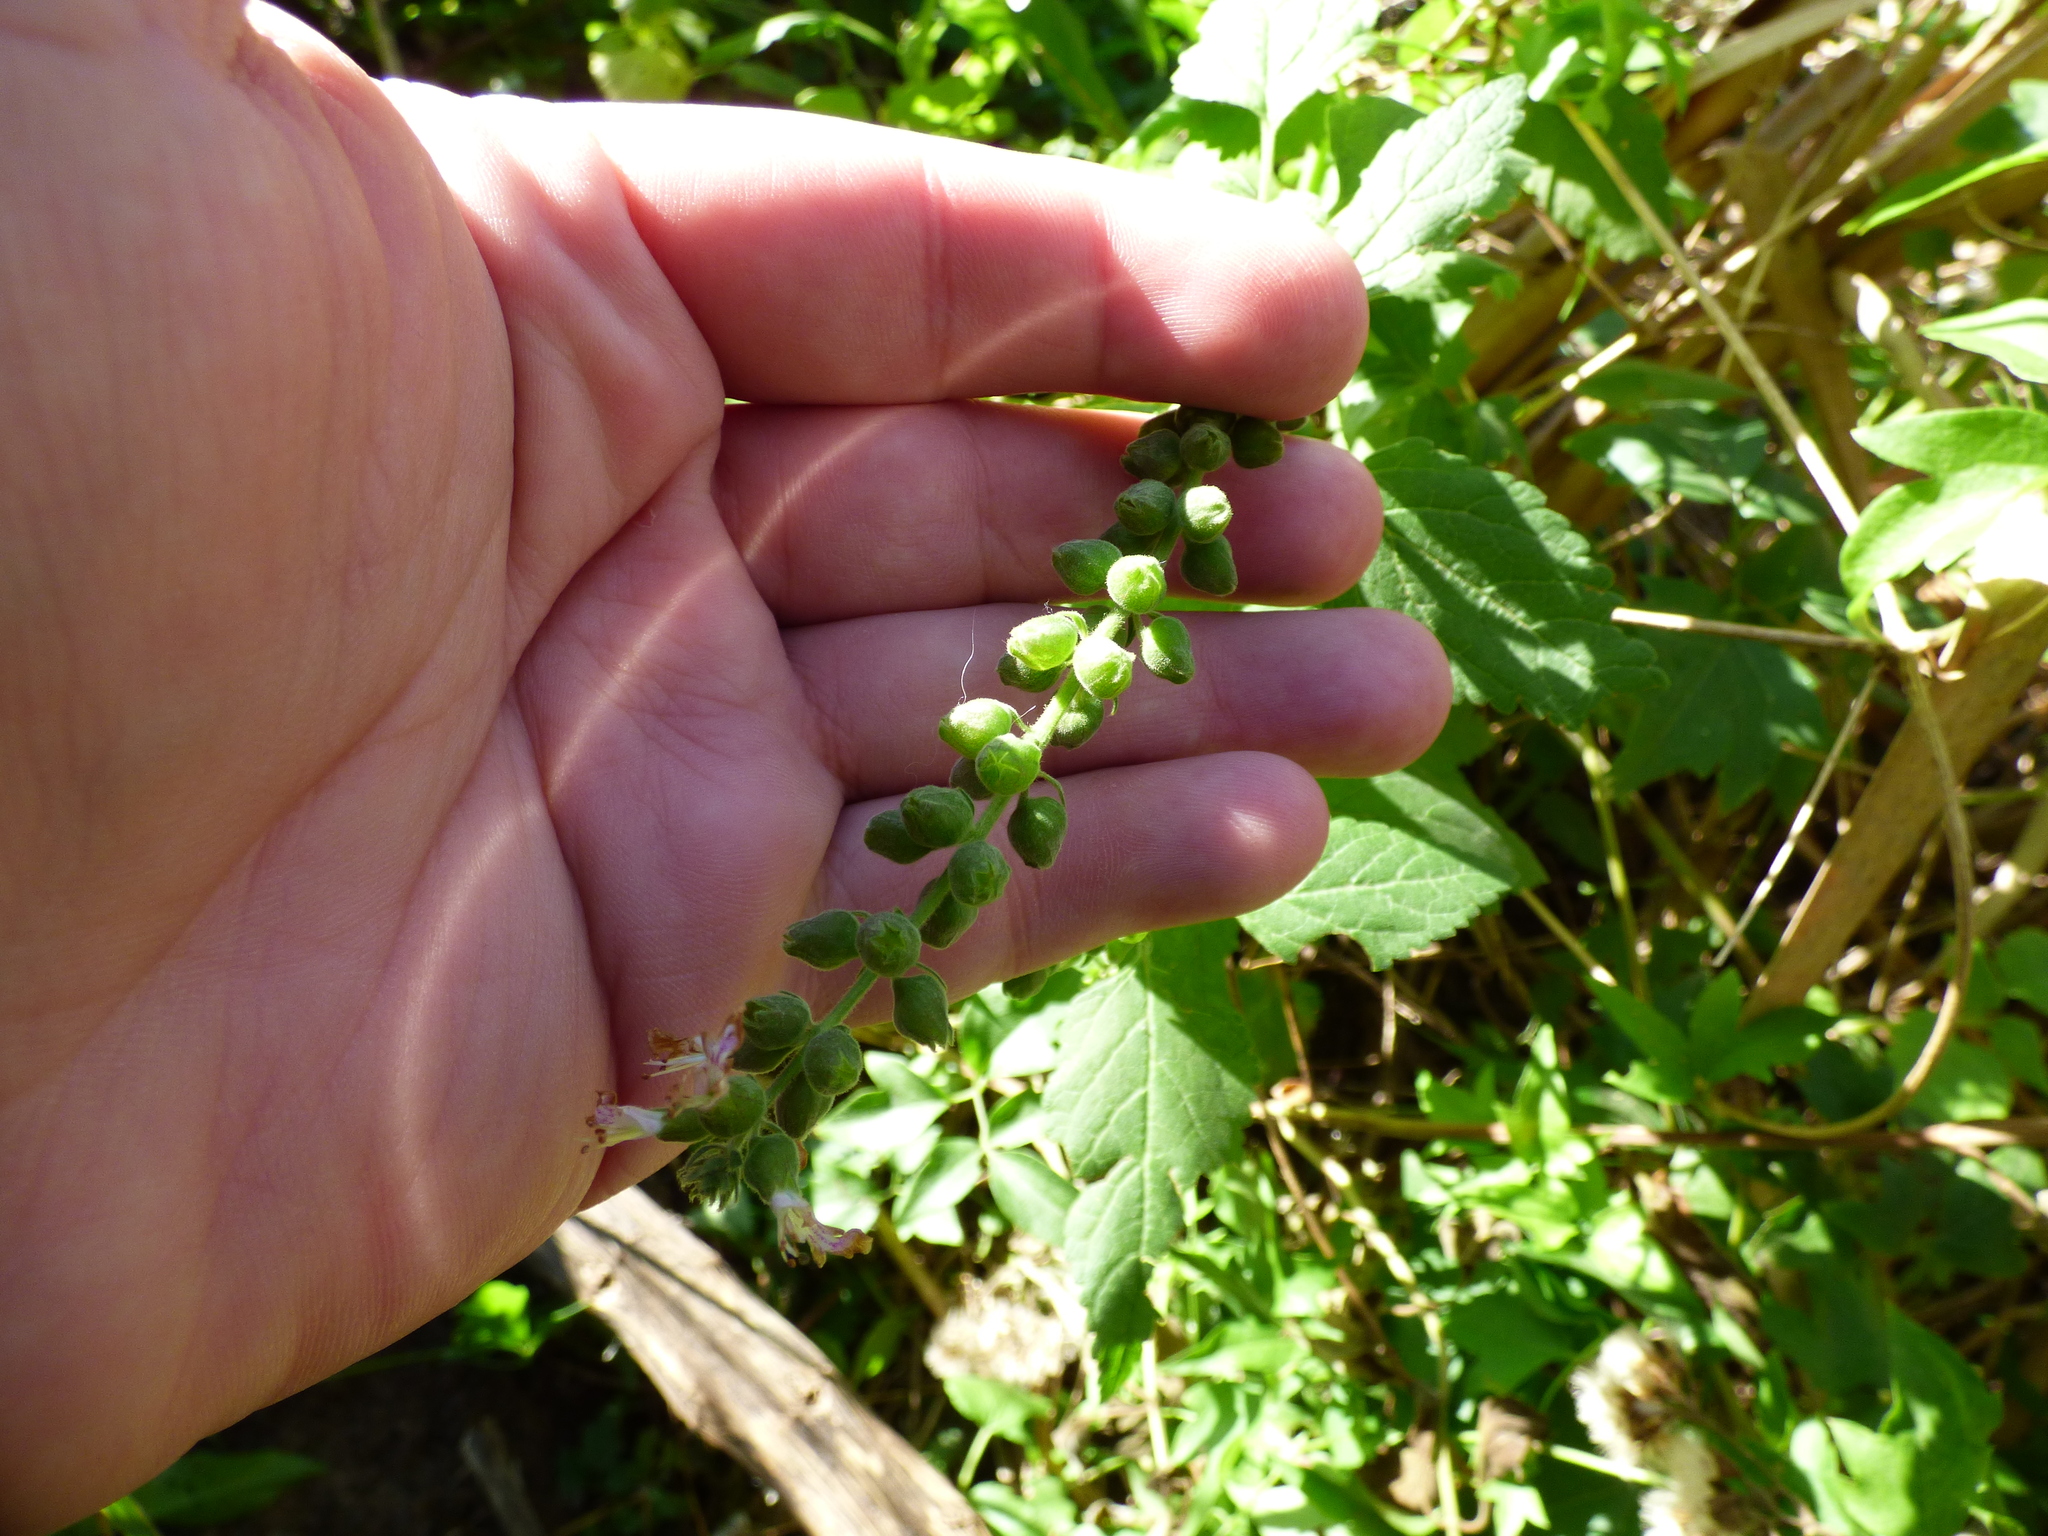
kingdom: Plantae
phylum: Tracheophyta
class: Magnoliopsida
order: Lamiales
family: Lamiaceae
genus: Teucrium
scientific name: Teucrium vesicarium
